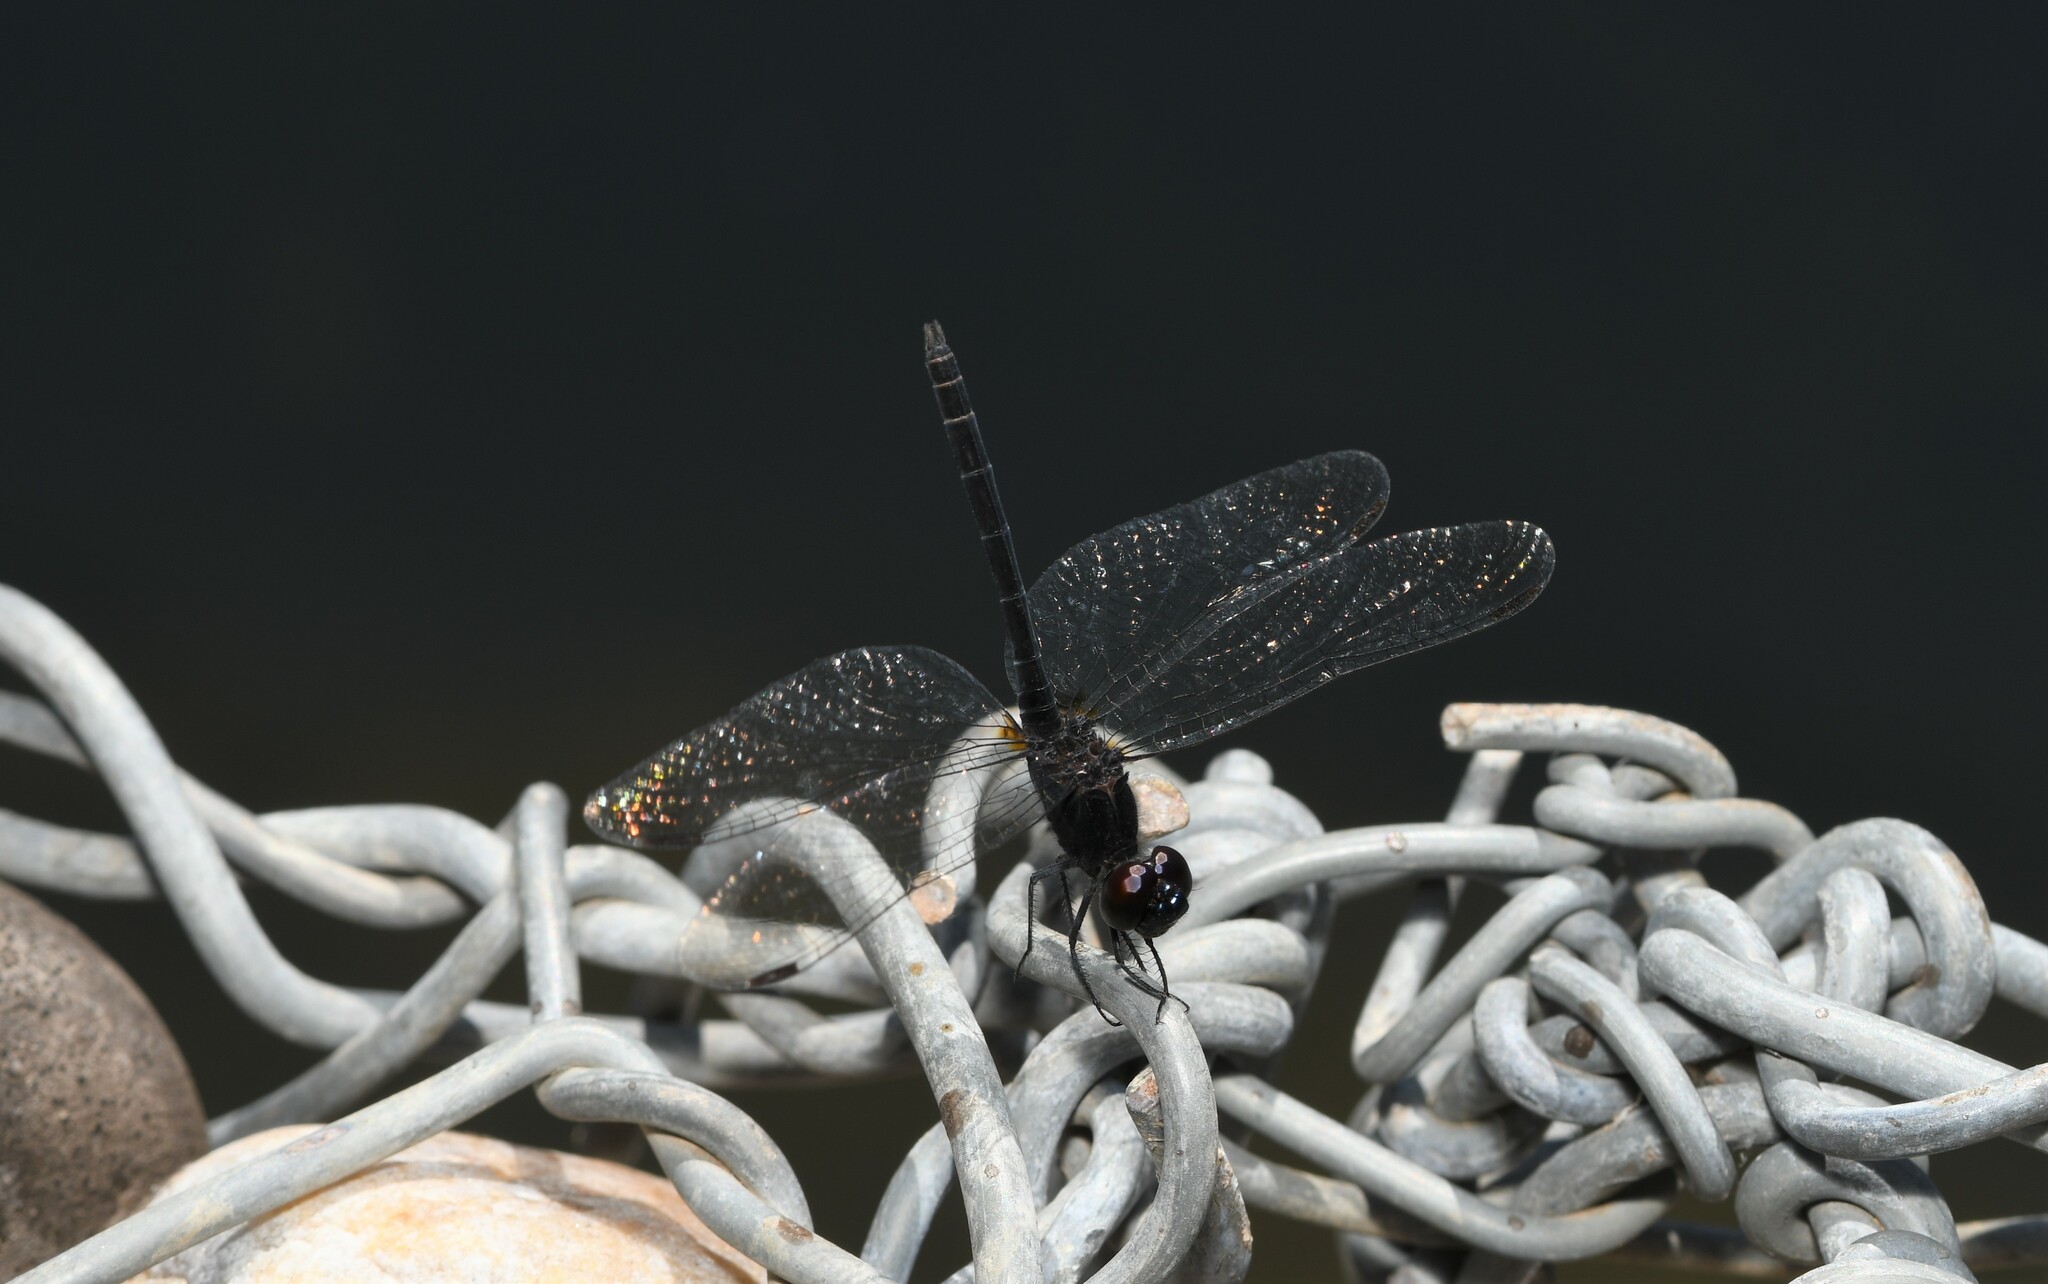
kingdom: Animalia
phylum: Arthropoda
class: Insecta
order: Odonata
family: Libellulidae
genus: Diplacodes
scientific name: Diplacodes lefebvrii
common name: Black percher
